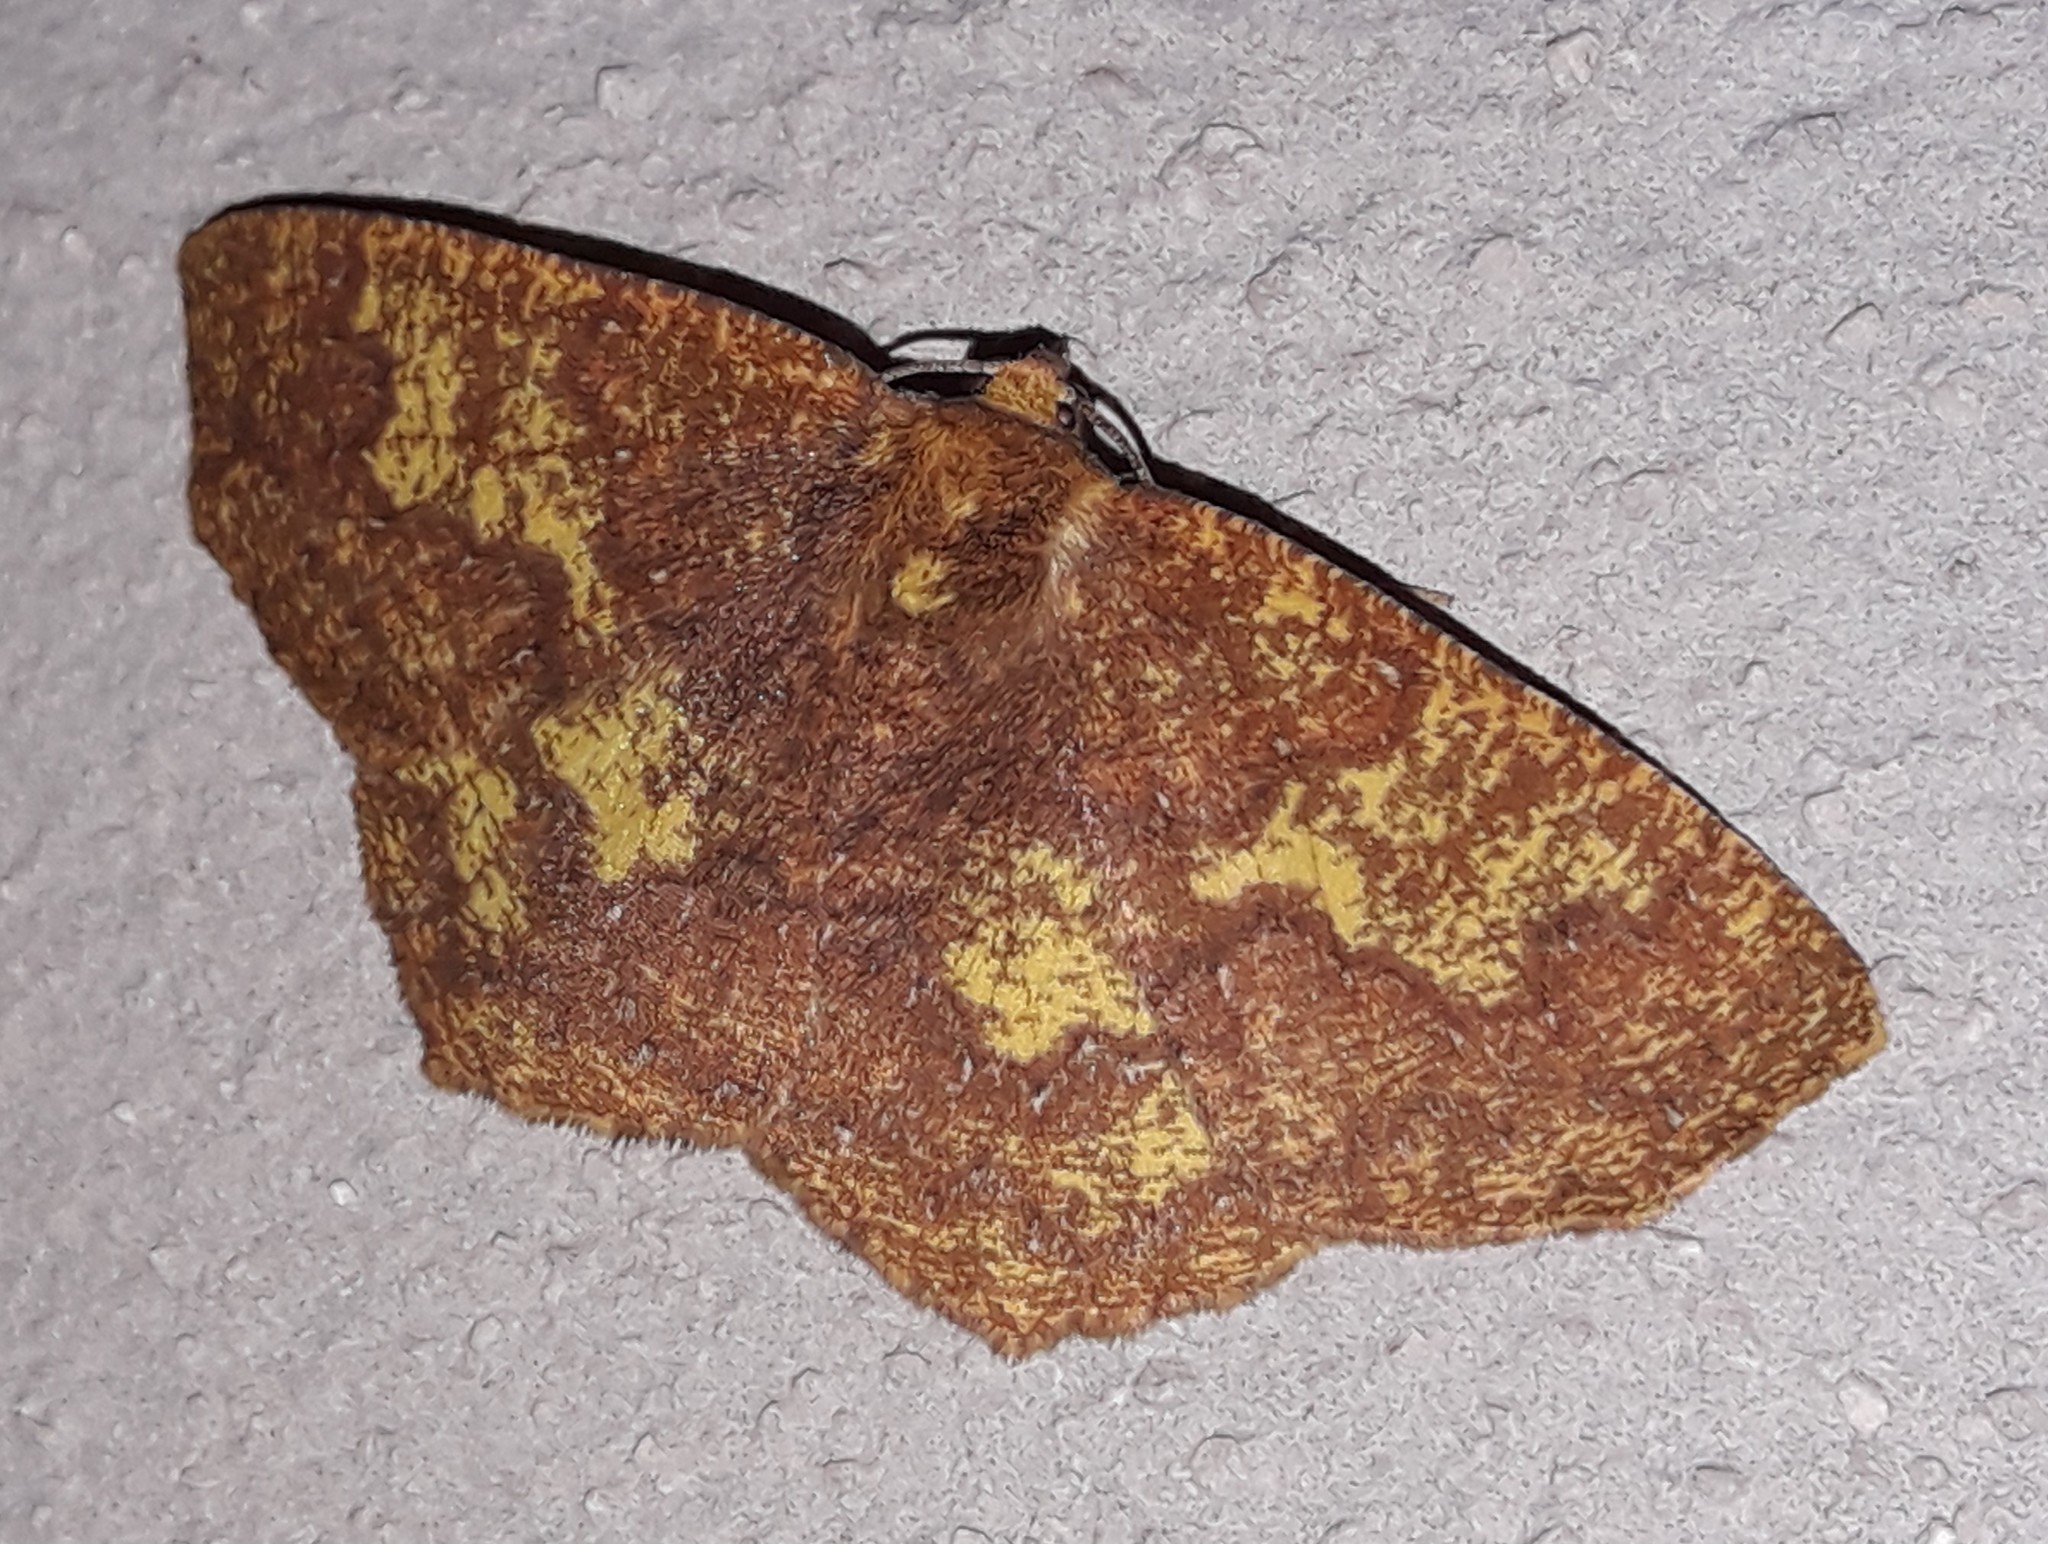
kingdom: Animalia
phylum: Arthropoda
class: Insecta
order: Lepidoptera
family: Geometridae
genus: Periclina
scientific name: Periclina merana
